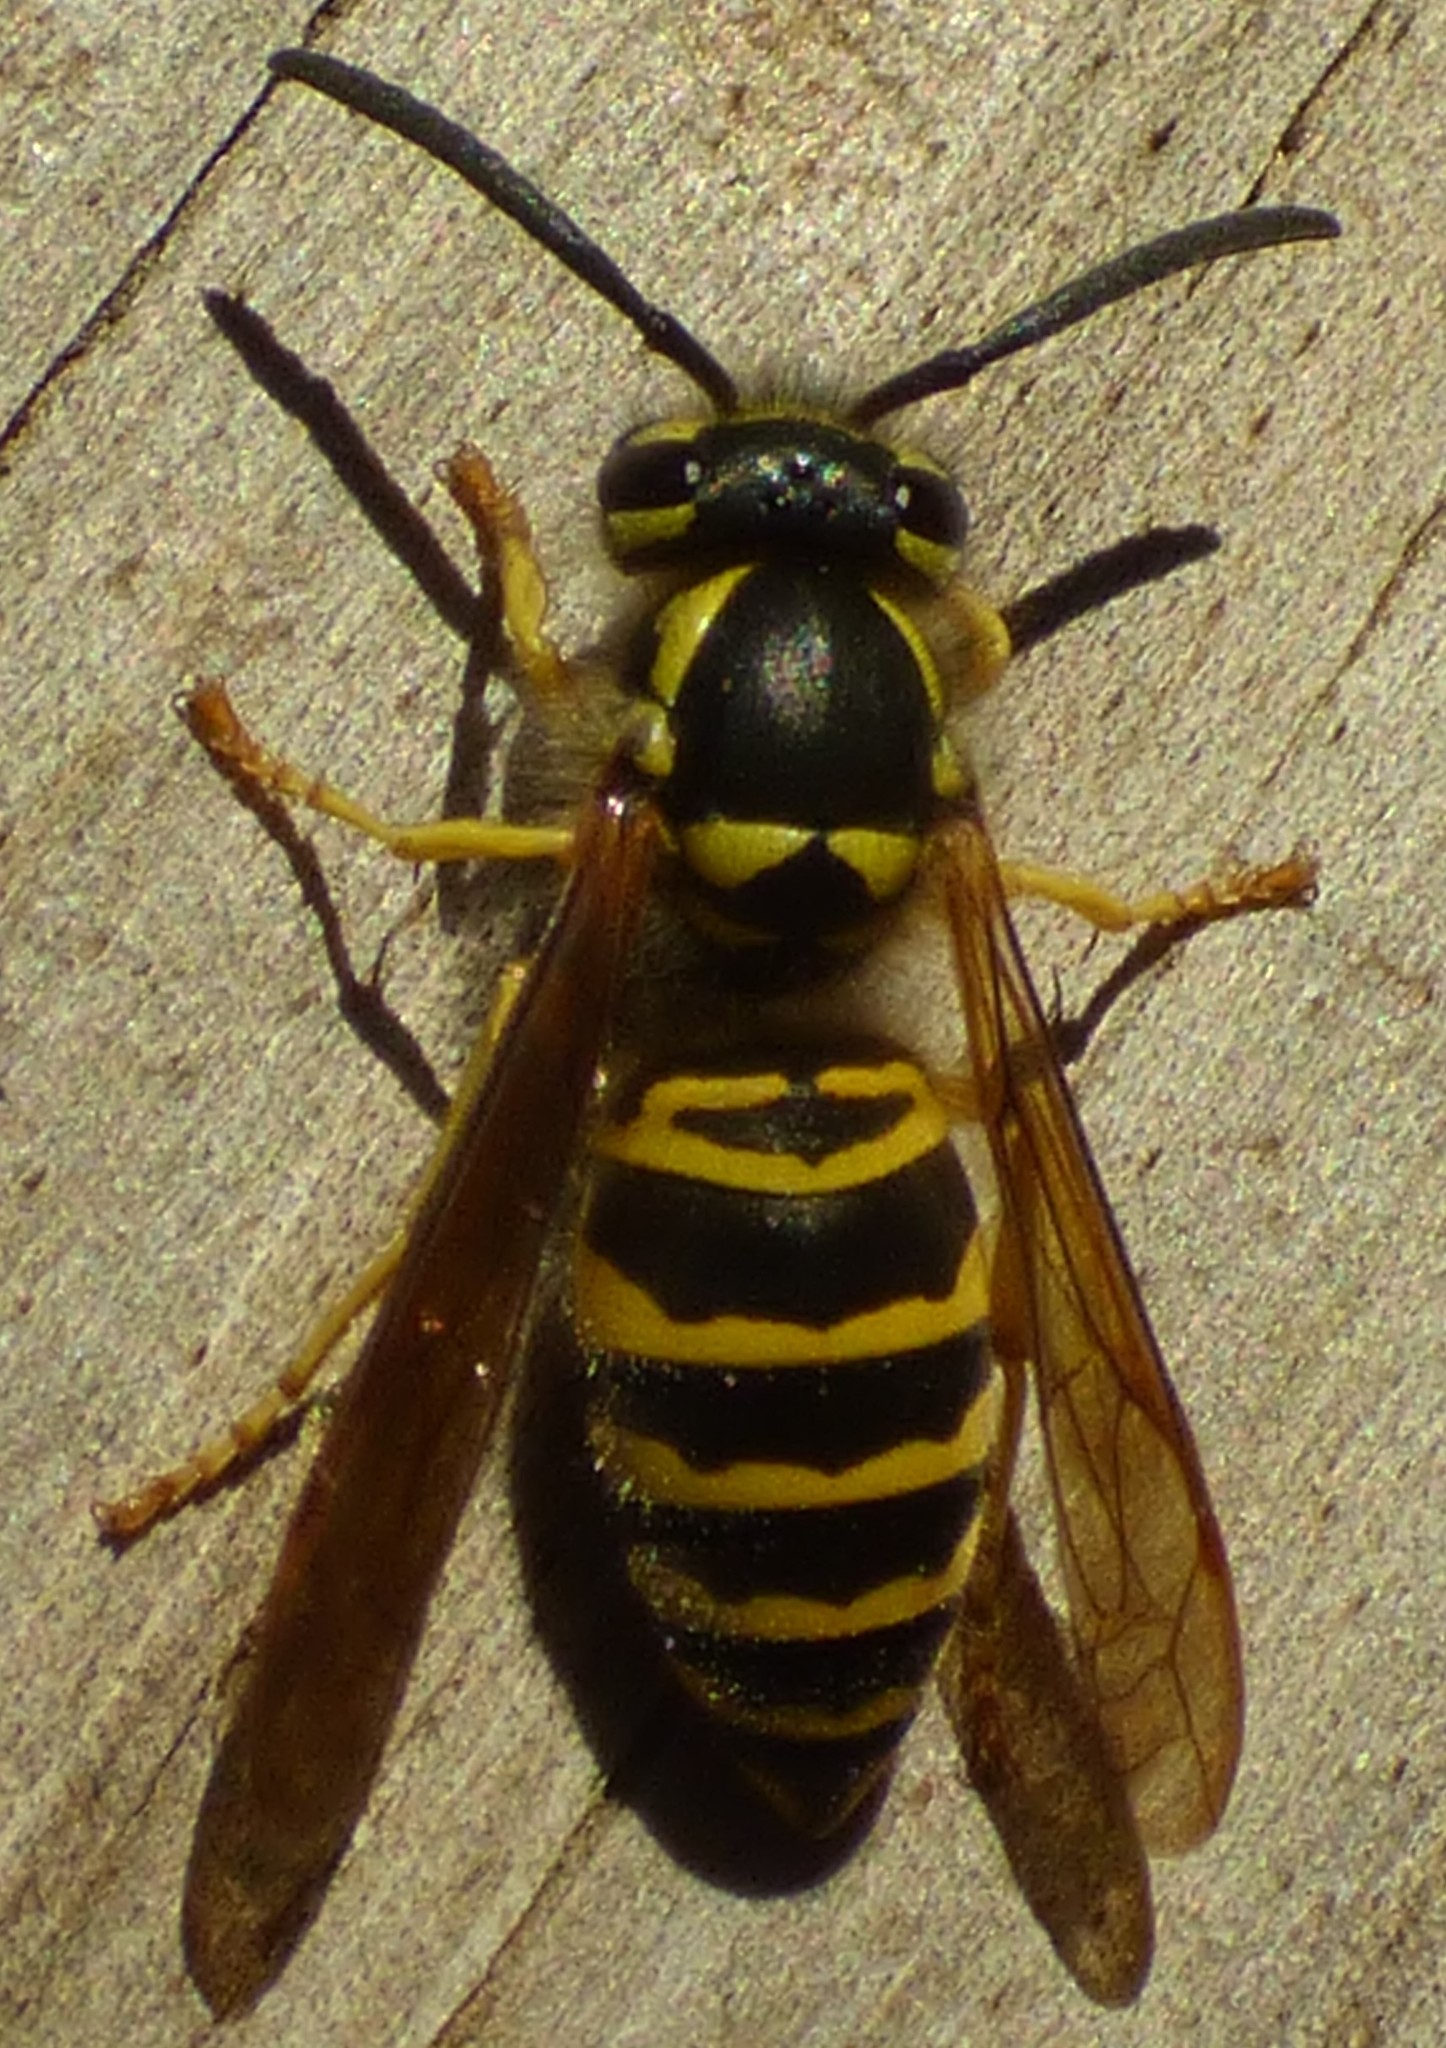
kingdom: Animalia
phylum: Arthropoda
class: Insecta
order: Hymenoptera
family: Vespidae
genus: Vespula
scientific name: Vespula maculifrons
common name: Eastern yellowjacket
